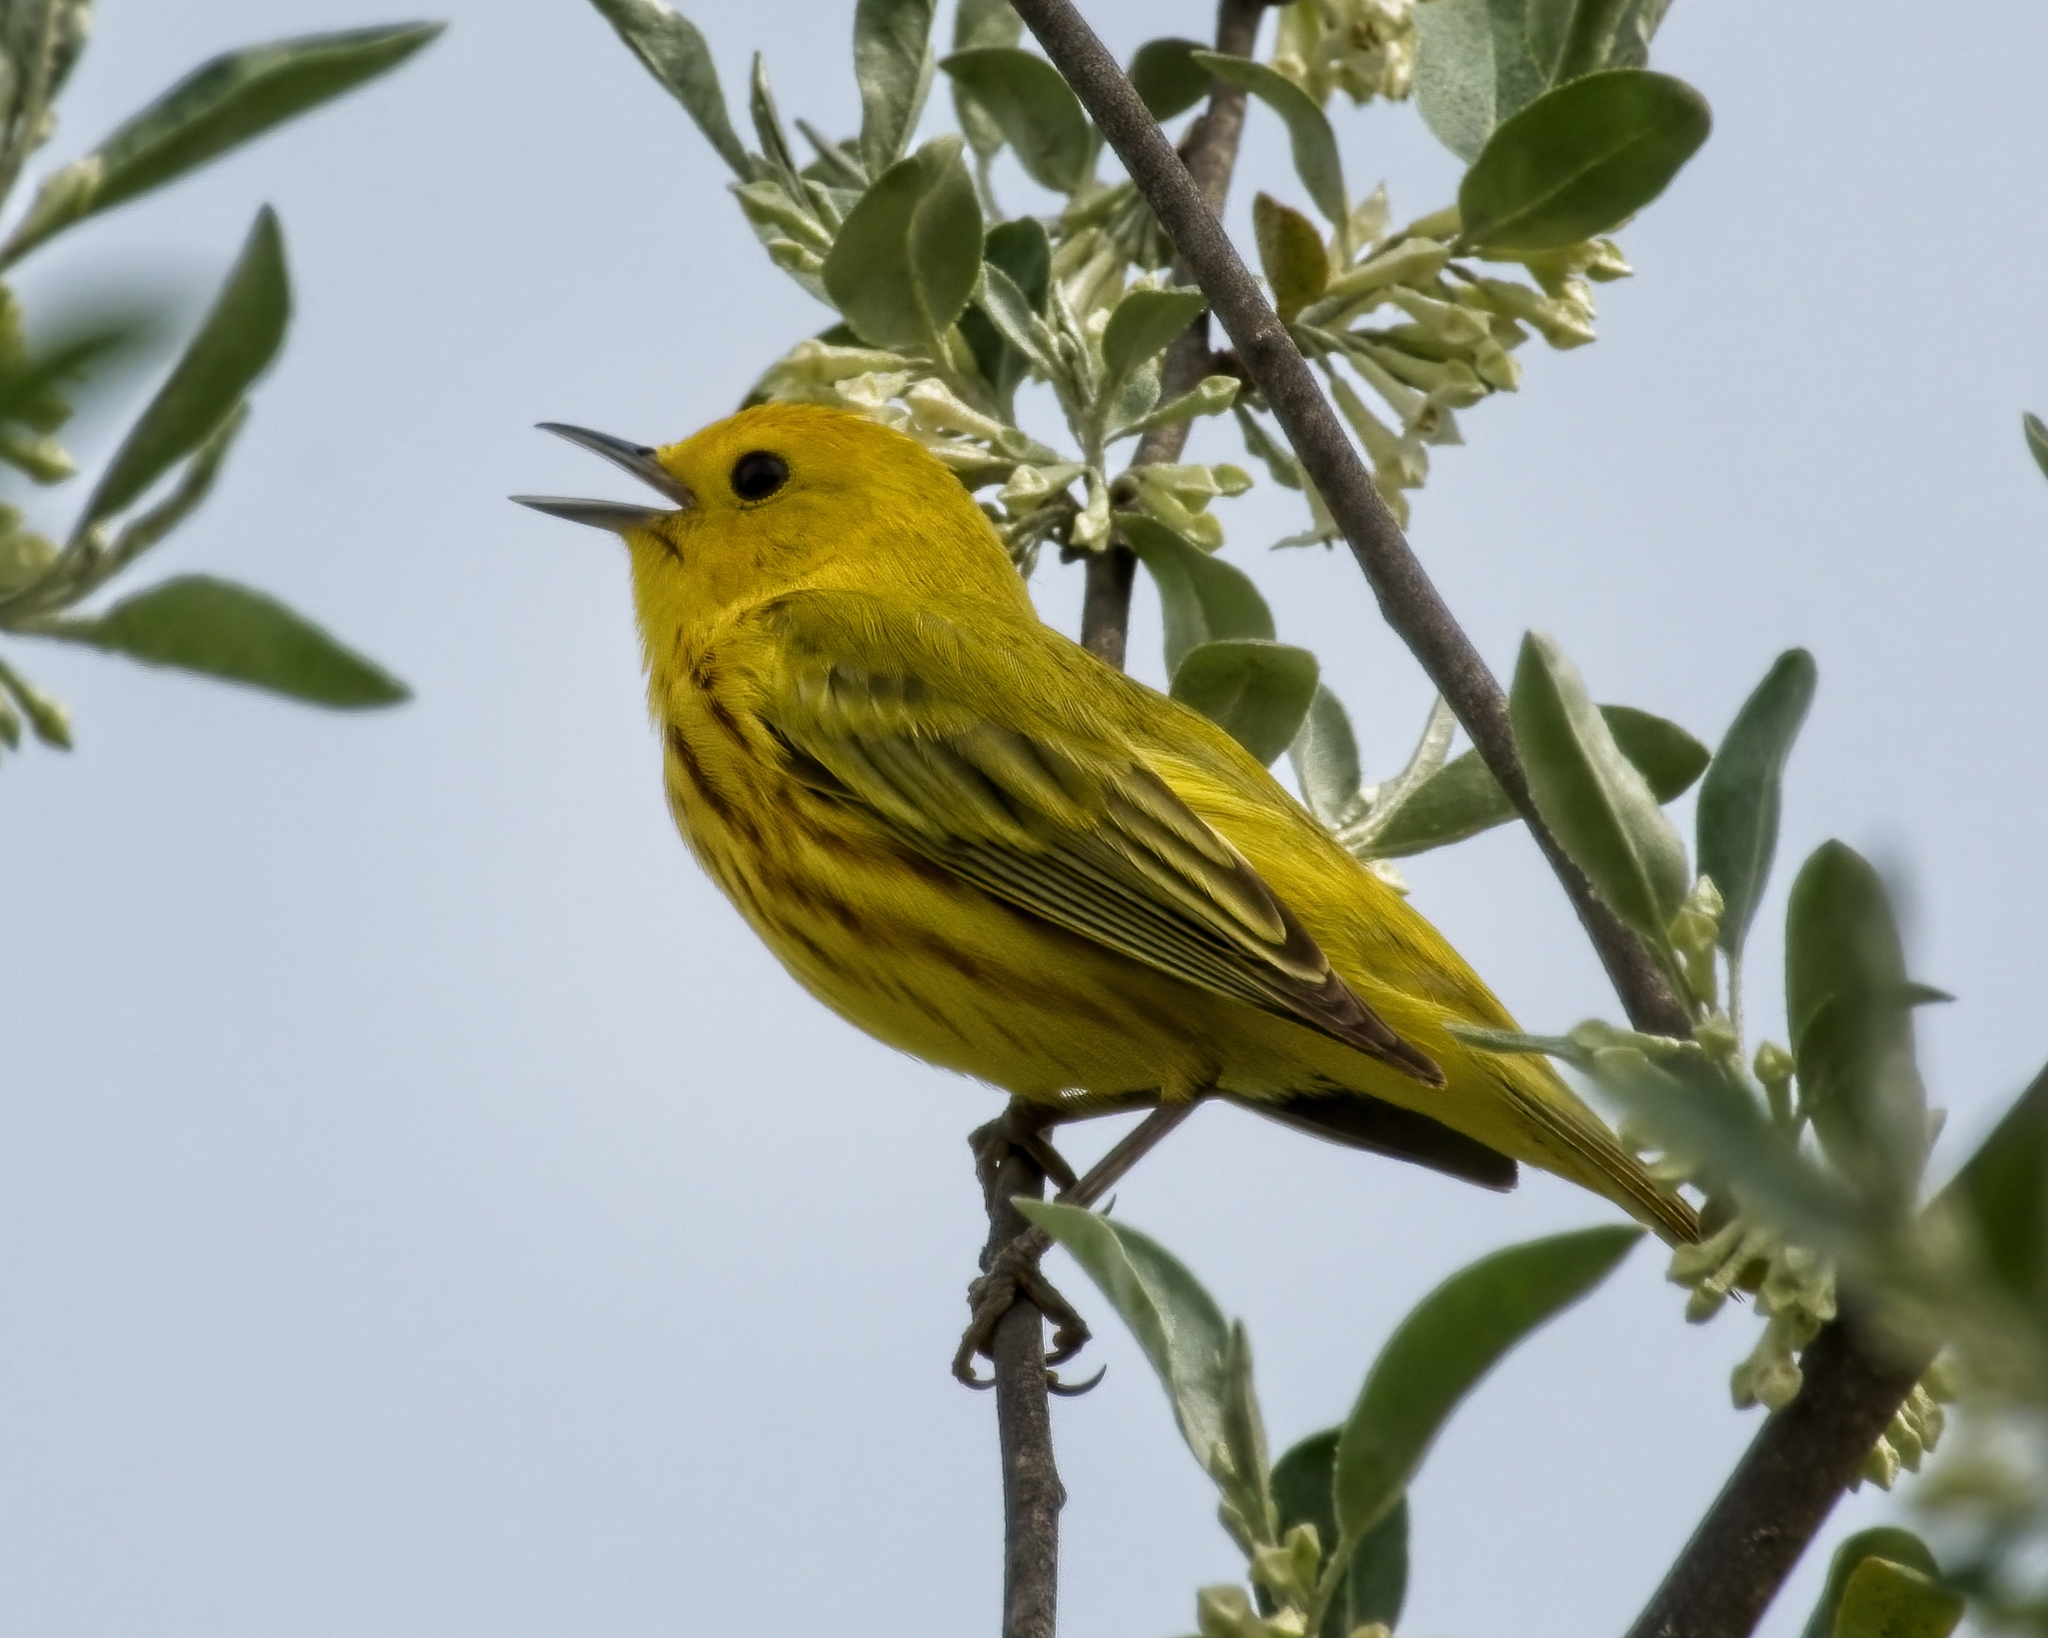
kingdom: Animalia
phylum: Chordata
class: Aves
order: Passeriformes
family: Parulidae
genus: Setophaga
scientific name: Setophaga petechia
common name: Yellow warbler
